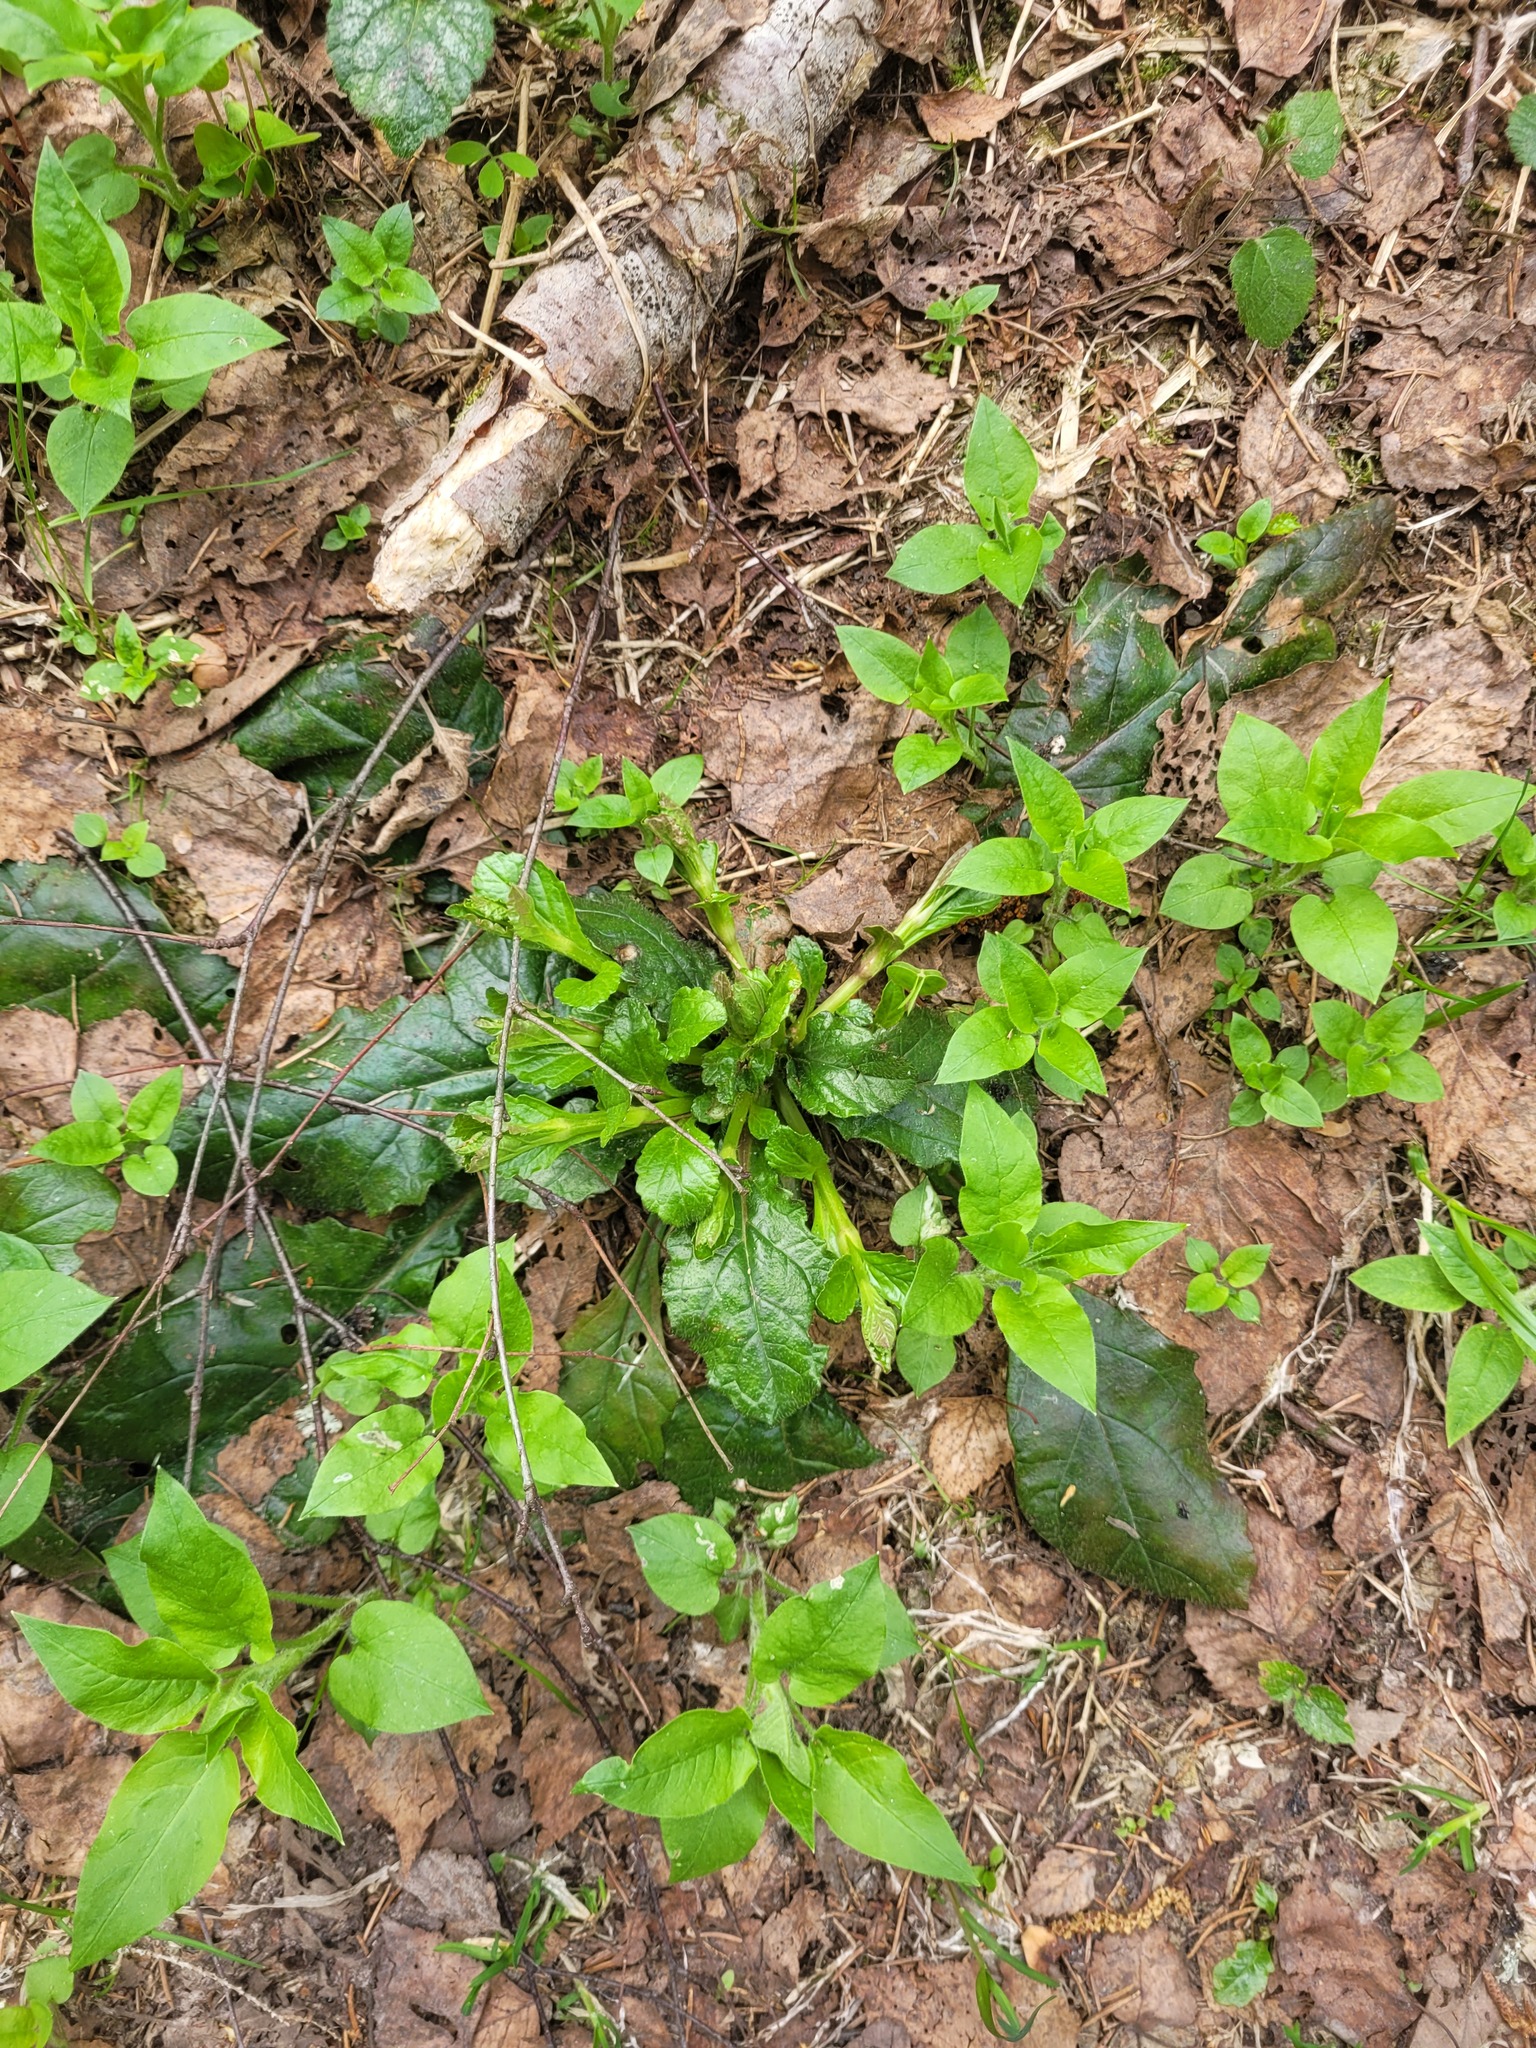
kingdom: Plantae
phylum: Tracheophyta
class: Magnoliopsida
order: Lamiales
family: Lamiaceae
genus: Ajuga
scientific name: Ajuga reptans
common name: Bugle
